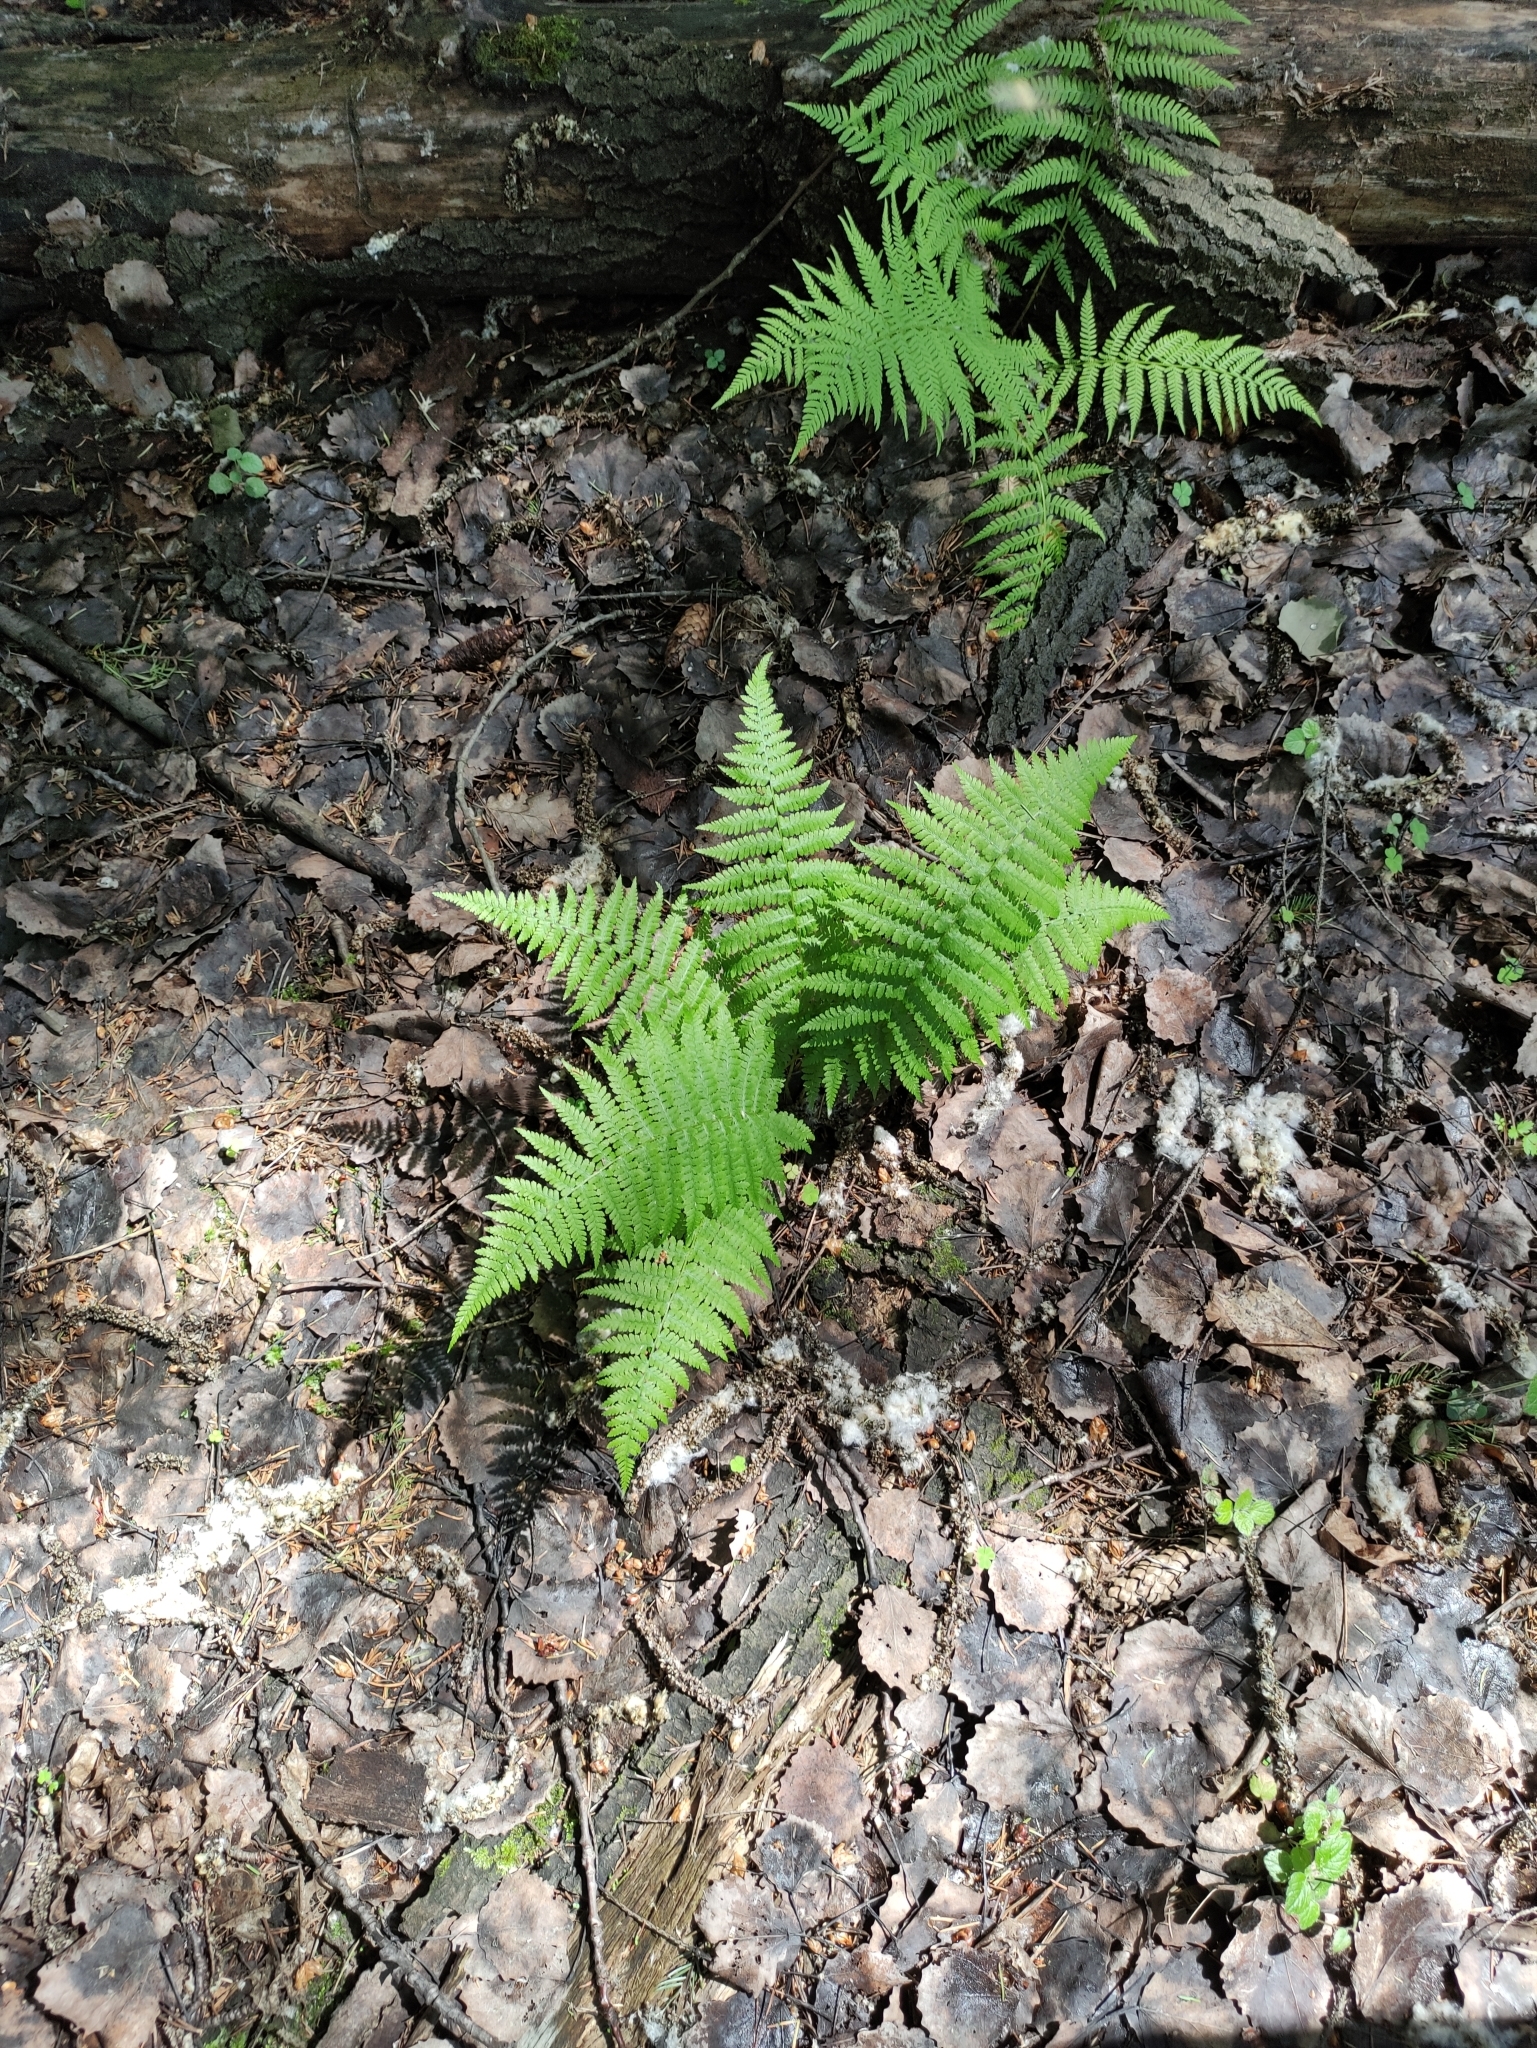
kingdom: Plantae
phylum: Tracheophyta
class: Polypodiopsida
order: Polypodiales
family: Athyriaceae
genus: Athyrium
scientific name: Athyrium filix-femina
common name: Lady fern
